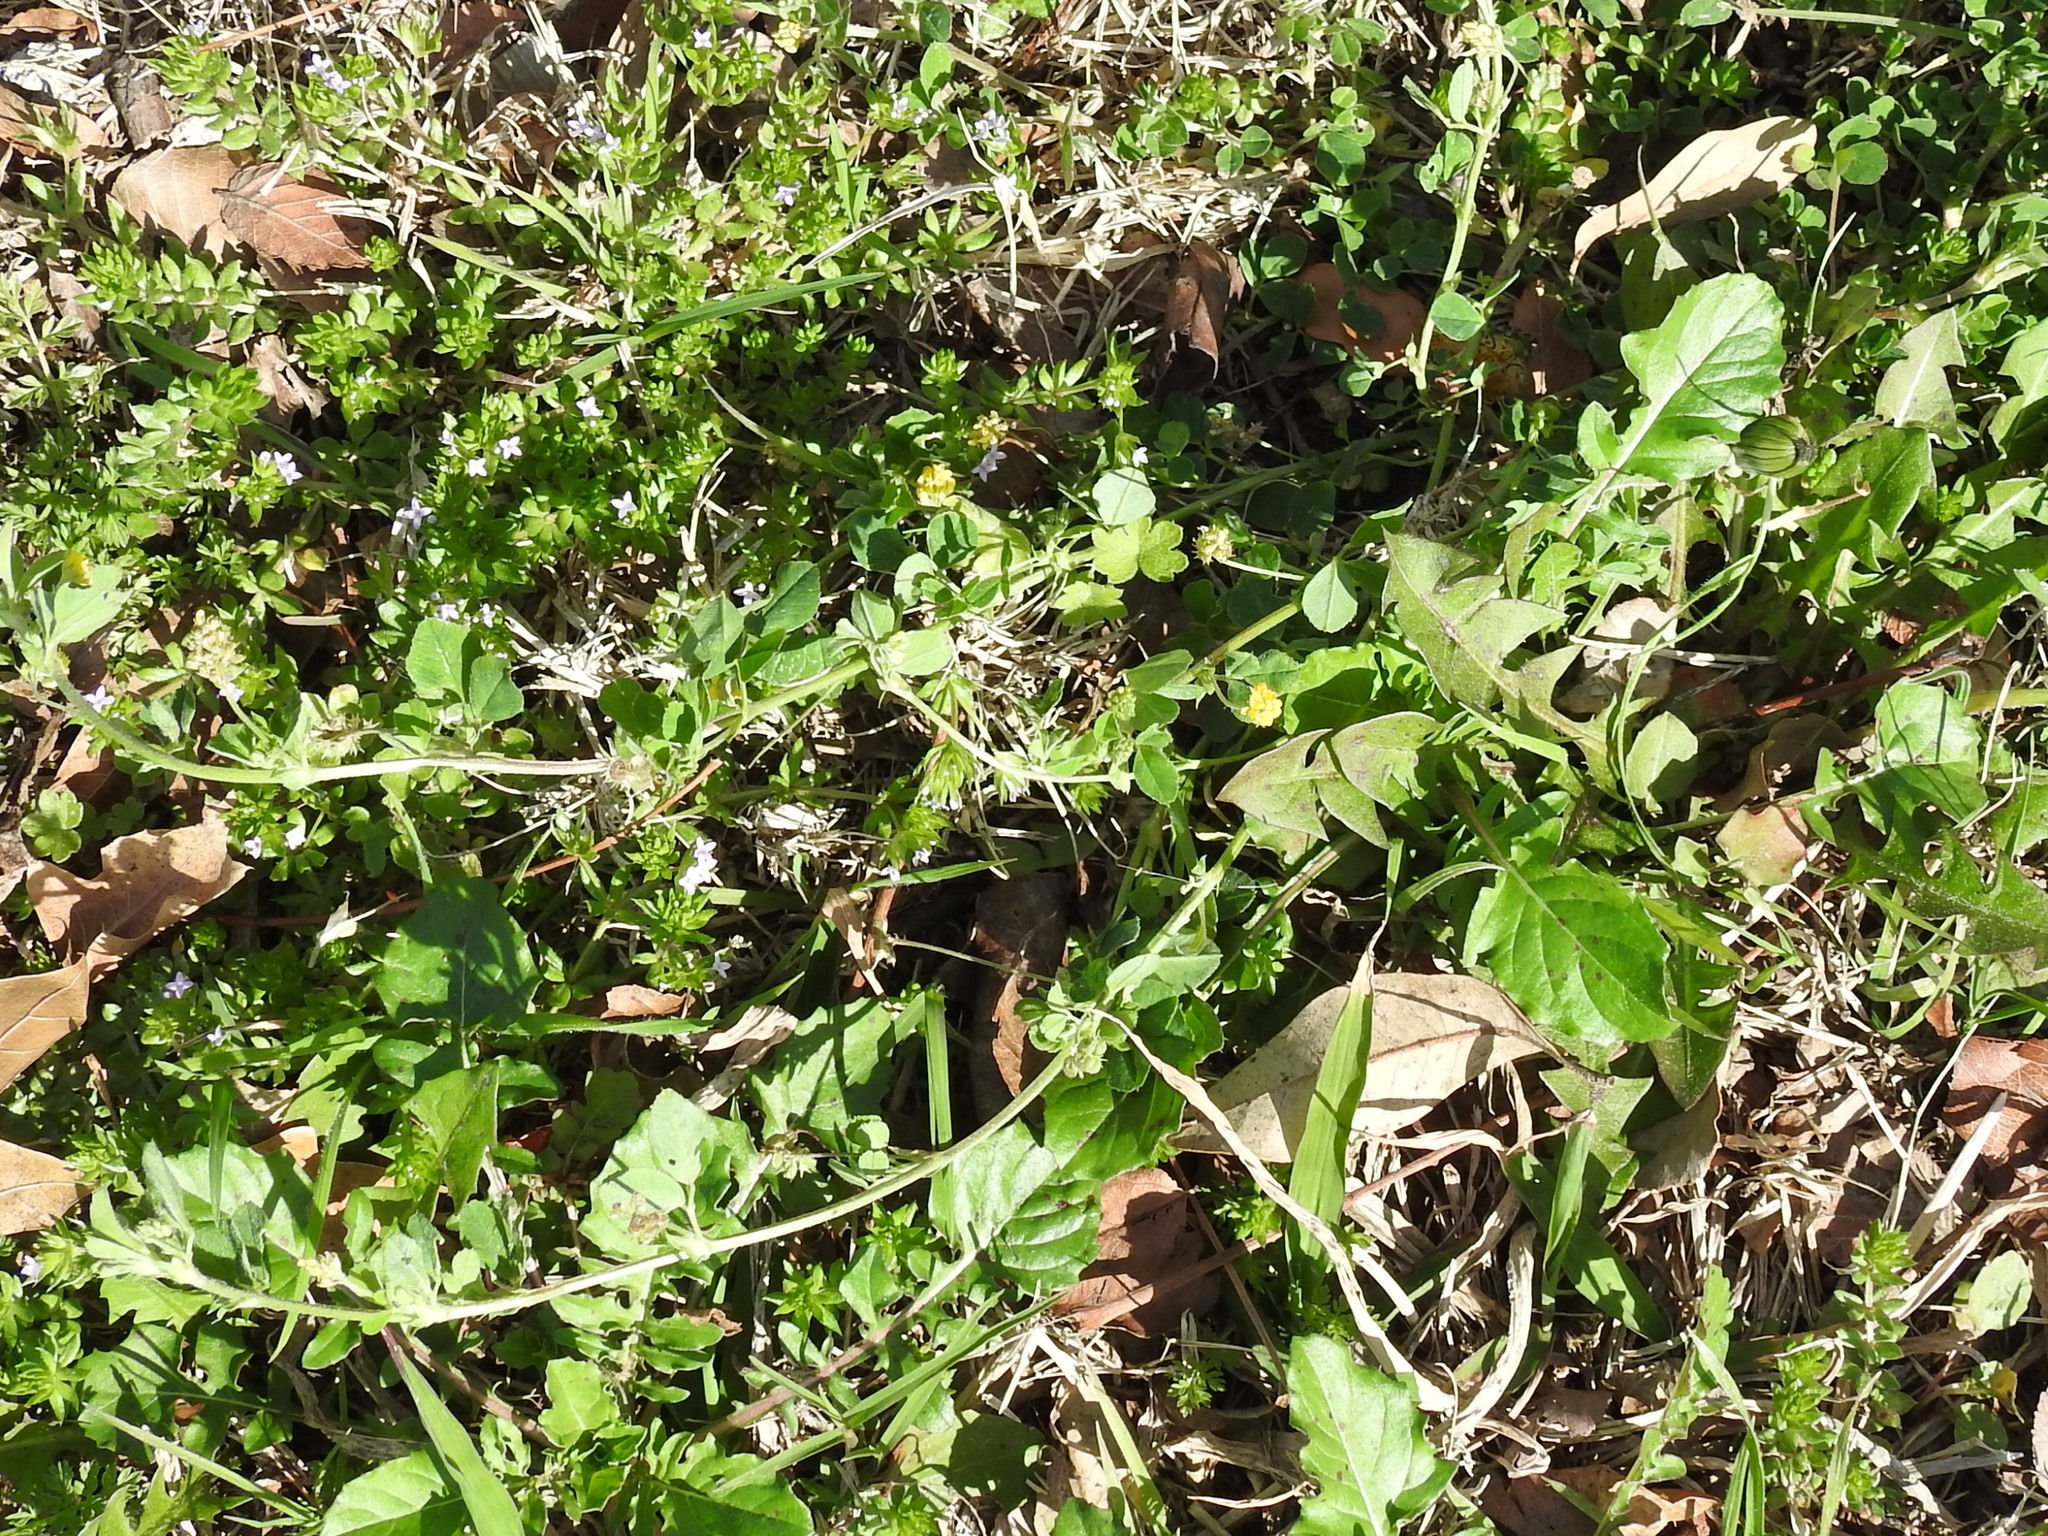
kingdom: Plantae
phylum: Tracheophyta
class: Magnoliopsida
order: Fabales
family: Fabaceae
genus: Medicago
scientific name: Medicago lupulina
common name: Black medick
